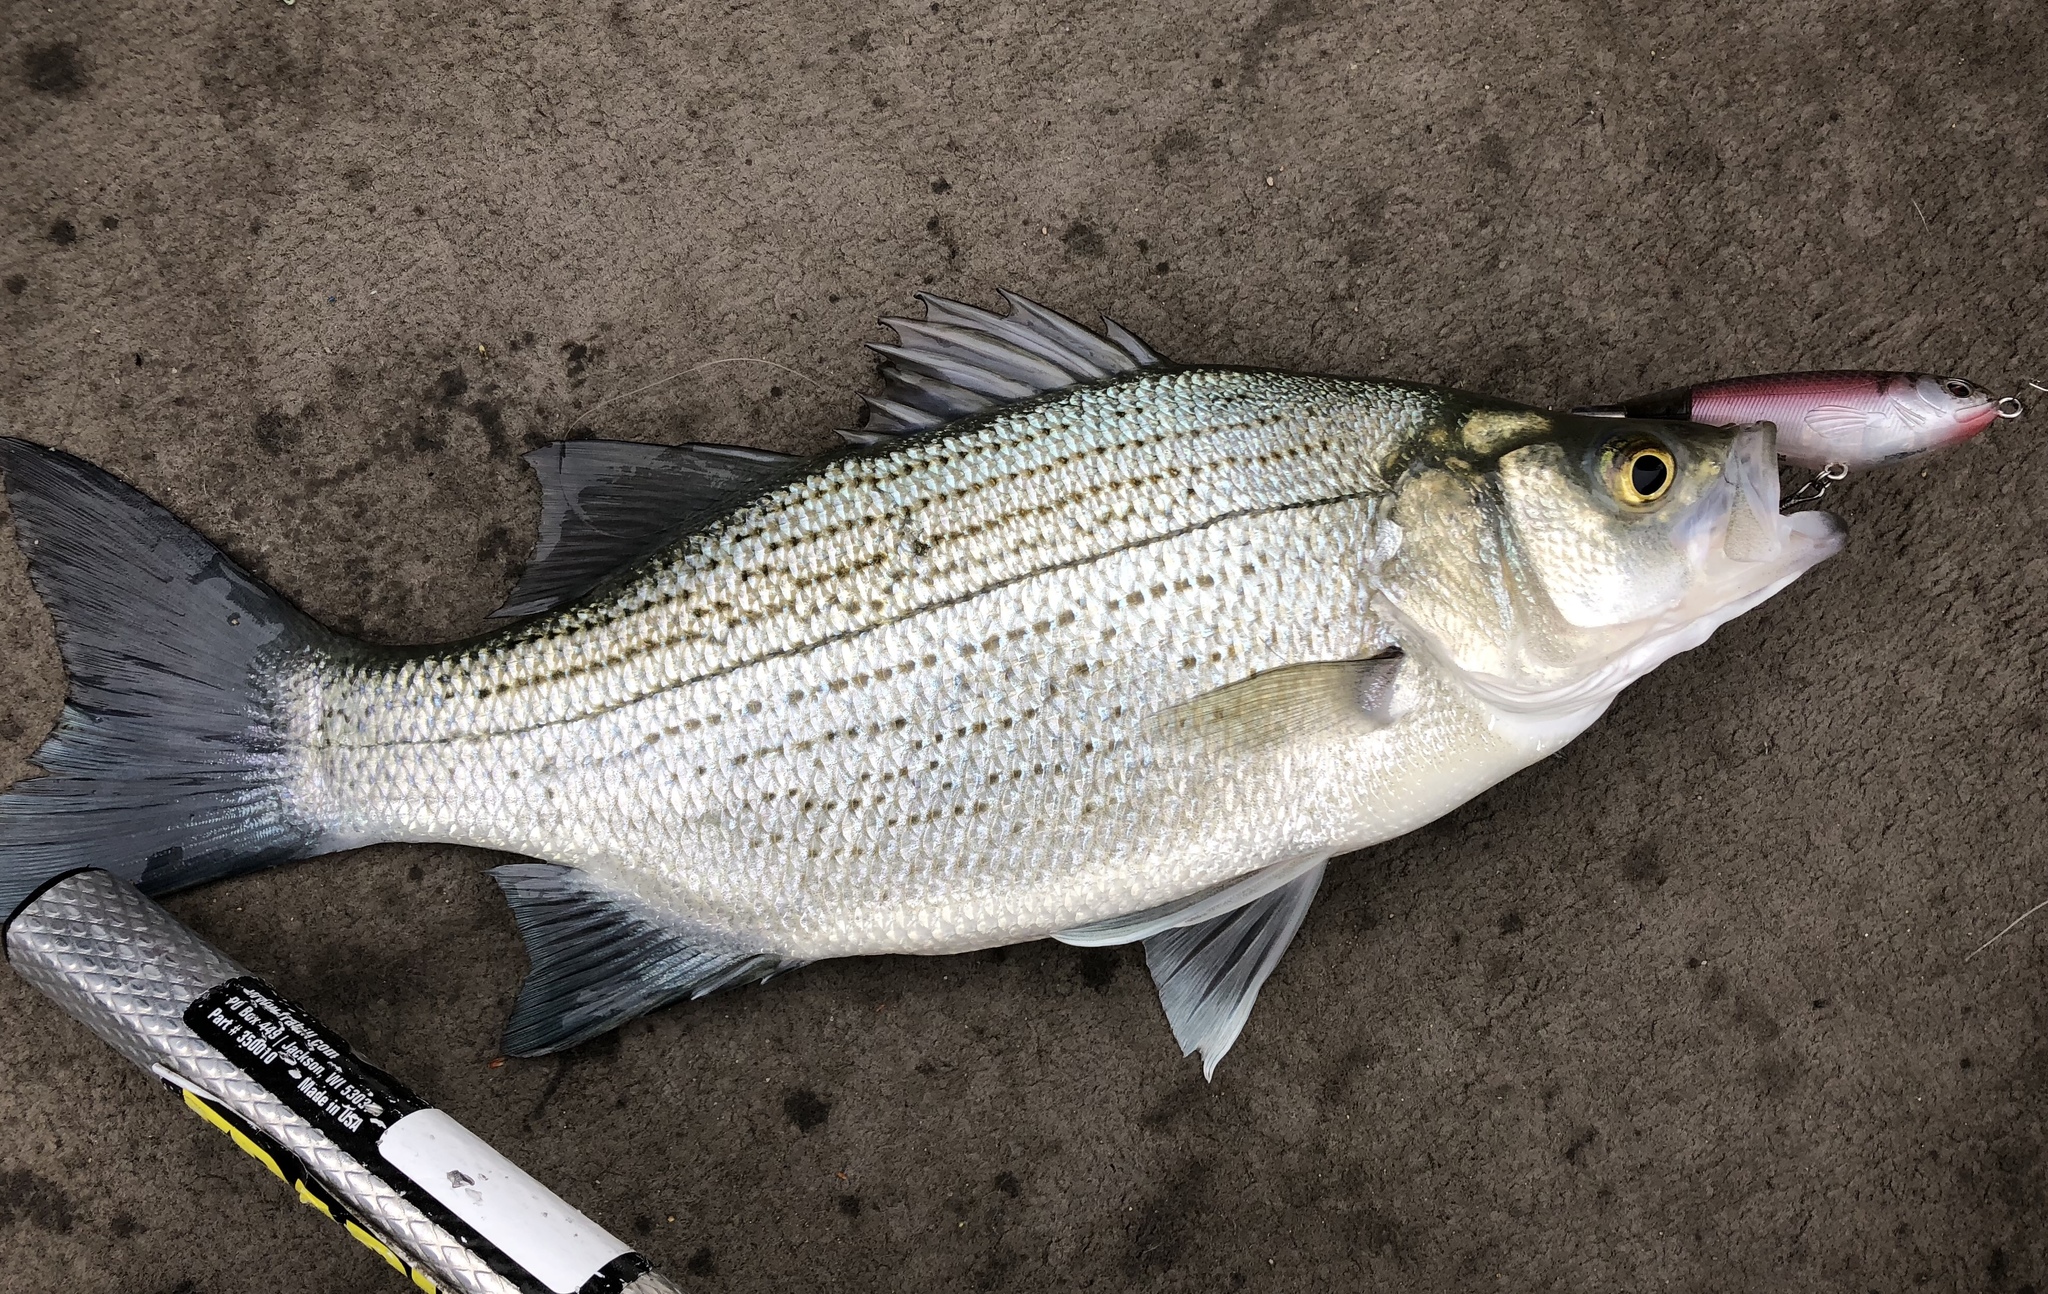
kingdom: Animalia
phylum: Chordata
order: Perciformes
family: Moronidae
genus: Morone
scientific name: Morone chrysops
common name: White bass
